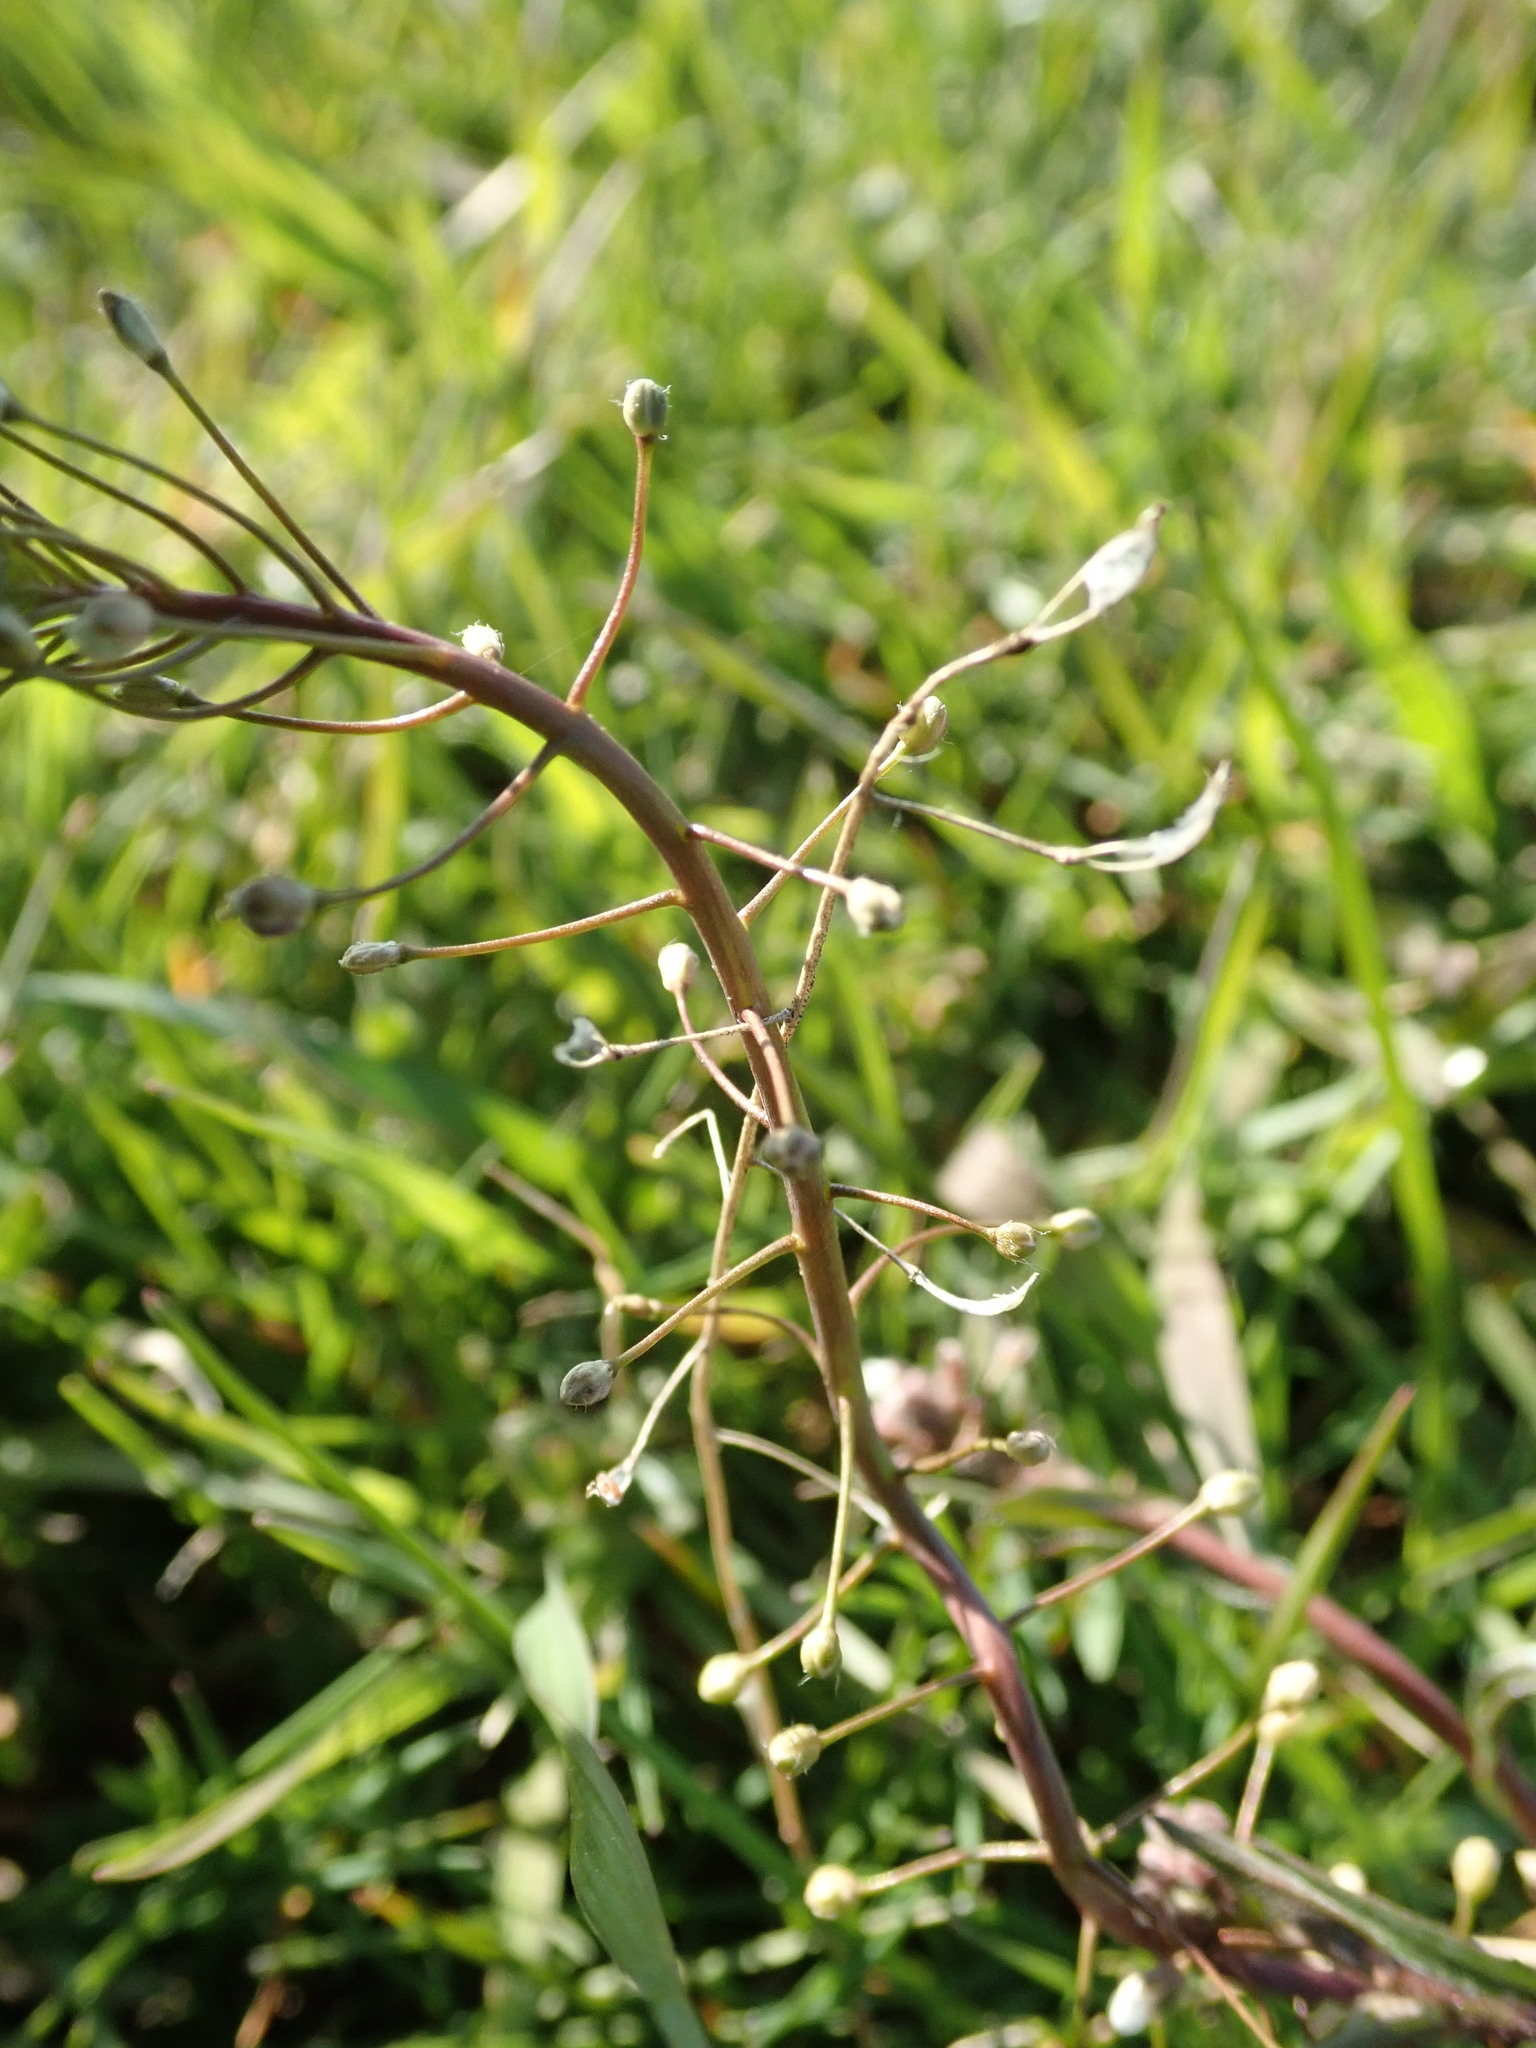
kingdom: Plantae
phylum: Tracheophyta
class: Magnoliopsida
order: Brassicales
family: Brassicaceae
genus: Capsella
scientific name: Capsella bursa-pastoris
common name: Shepherd's purse
